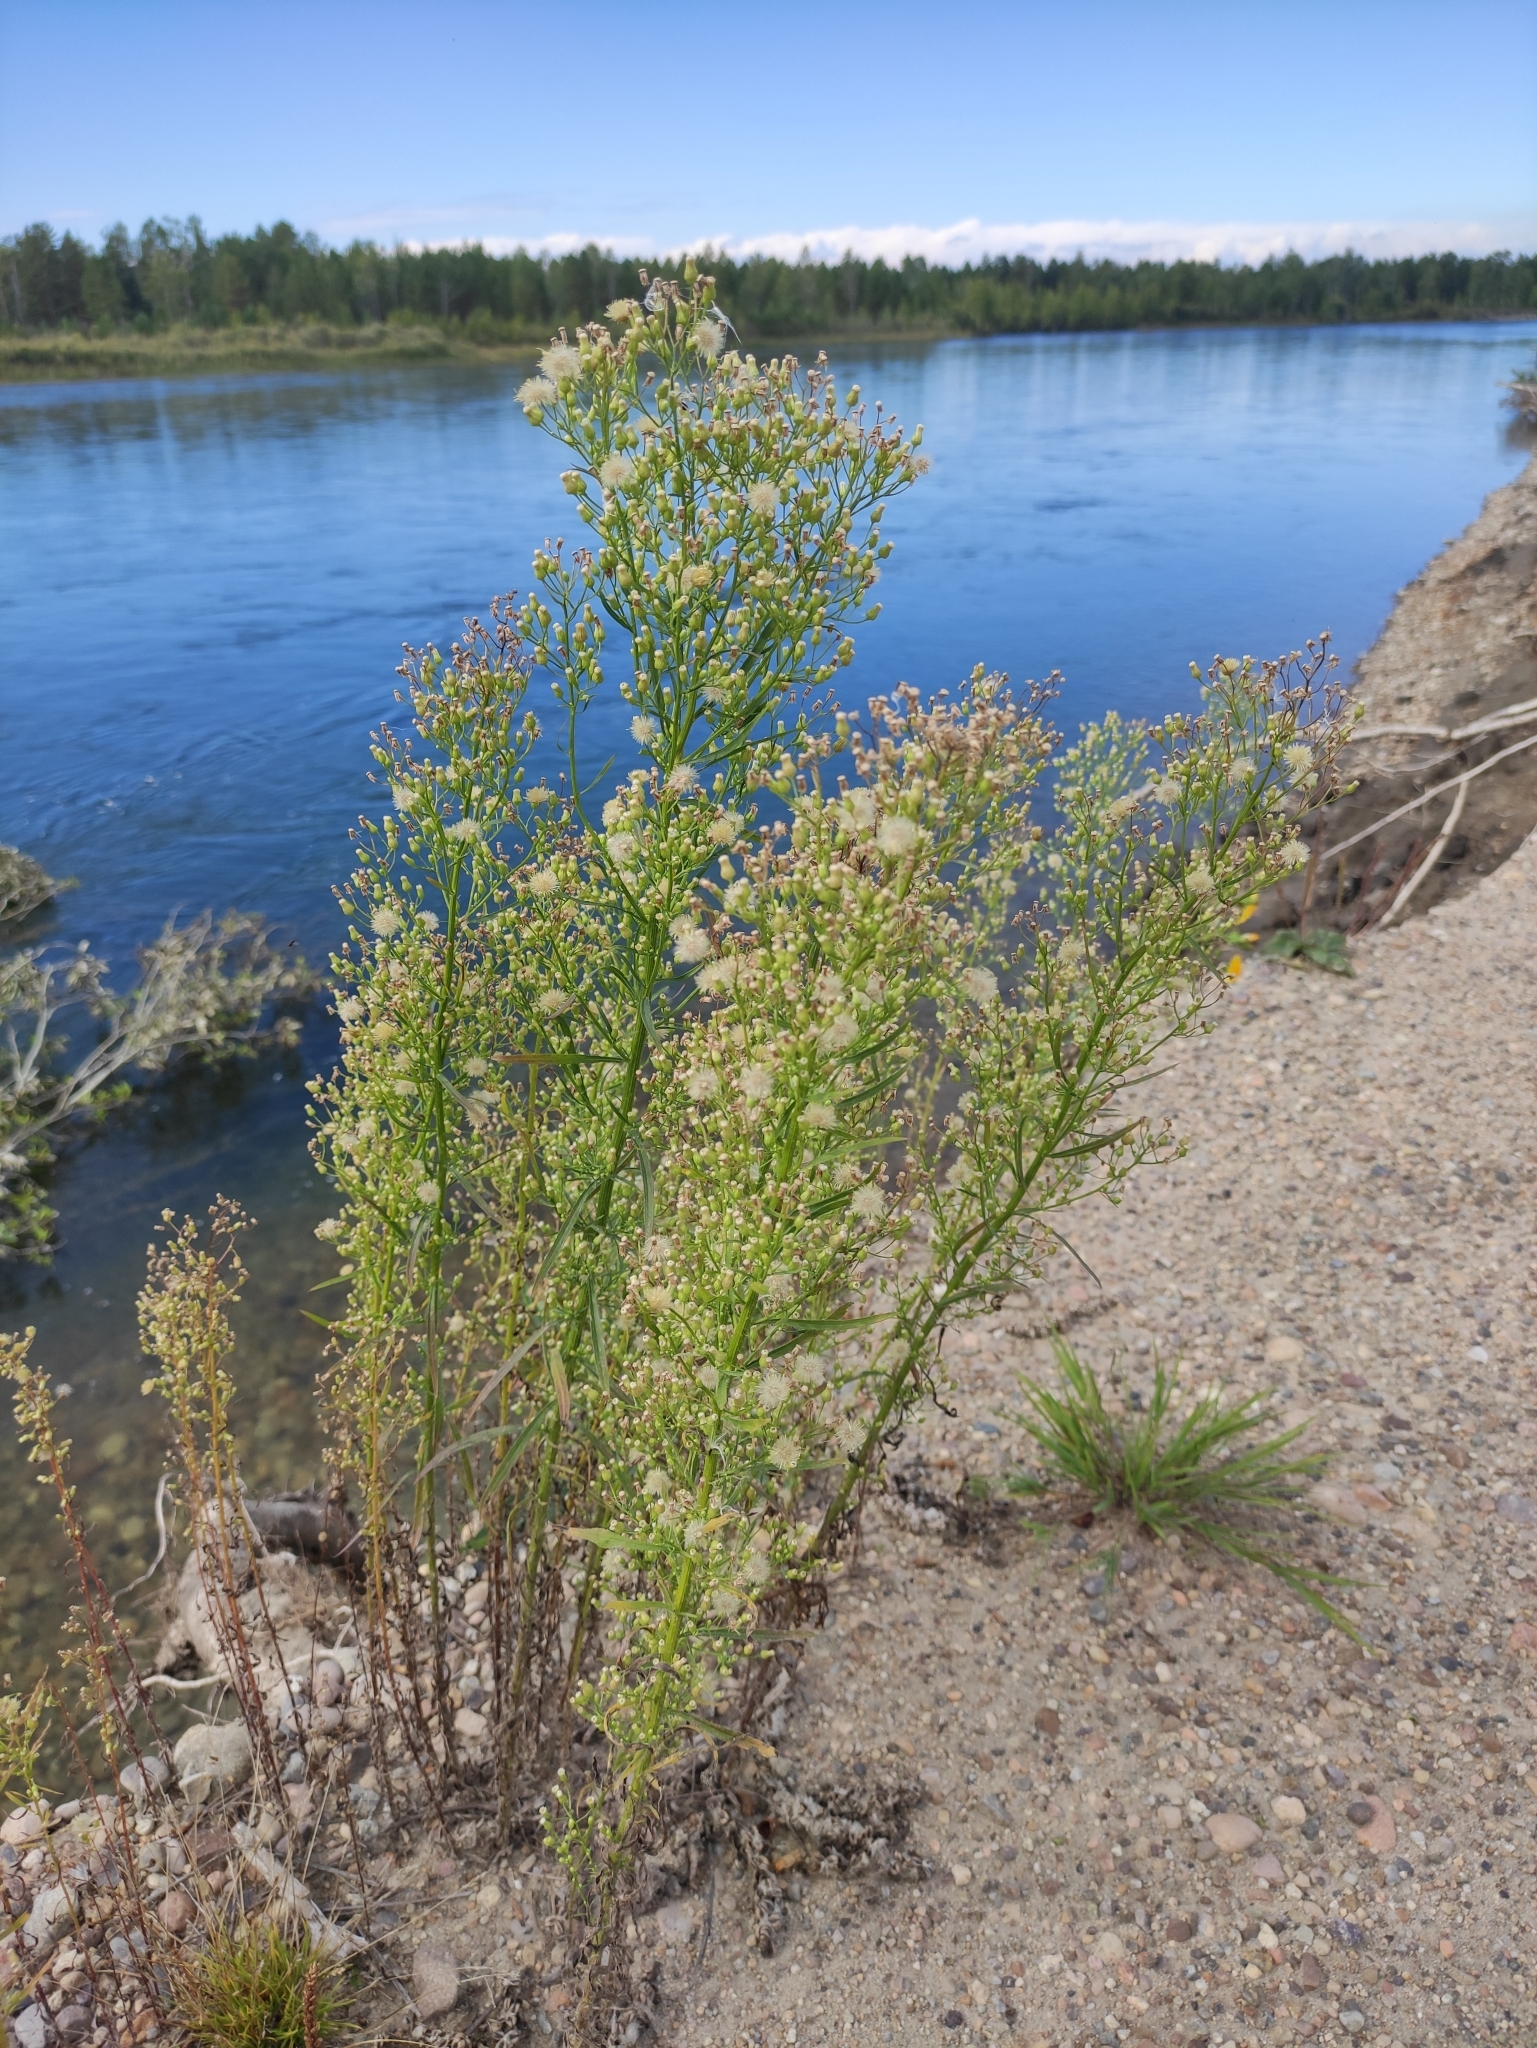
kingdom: Plantae
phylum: Tracheophyta
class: Magnoliopsida
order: Asterales
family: Asteraceae
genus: Erigeron
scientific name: Erigeron canadensis
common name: Canadian fleabane
